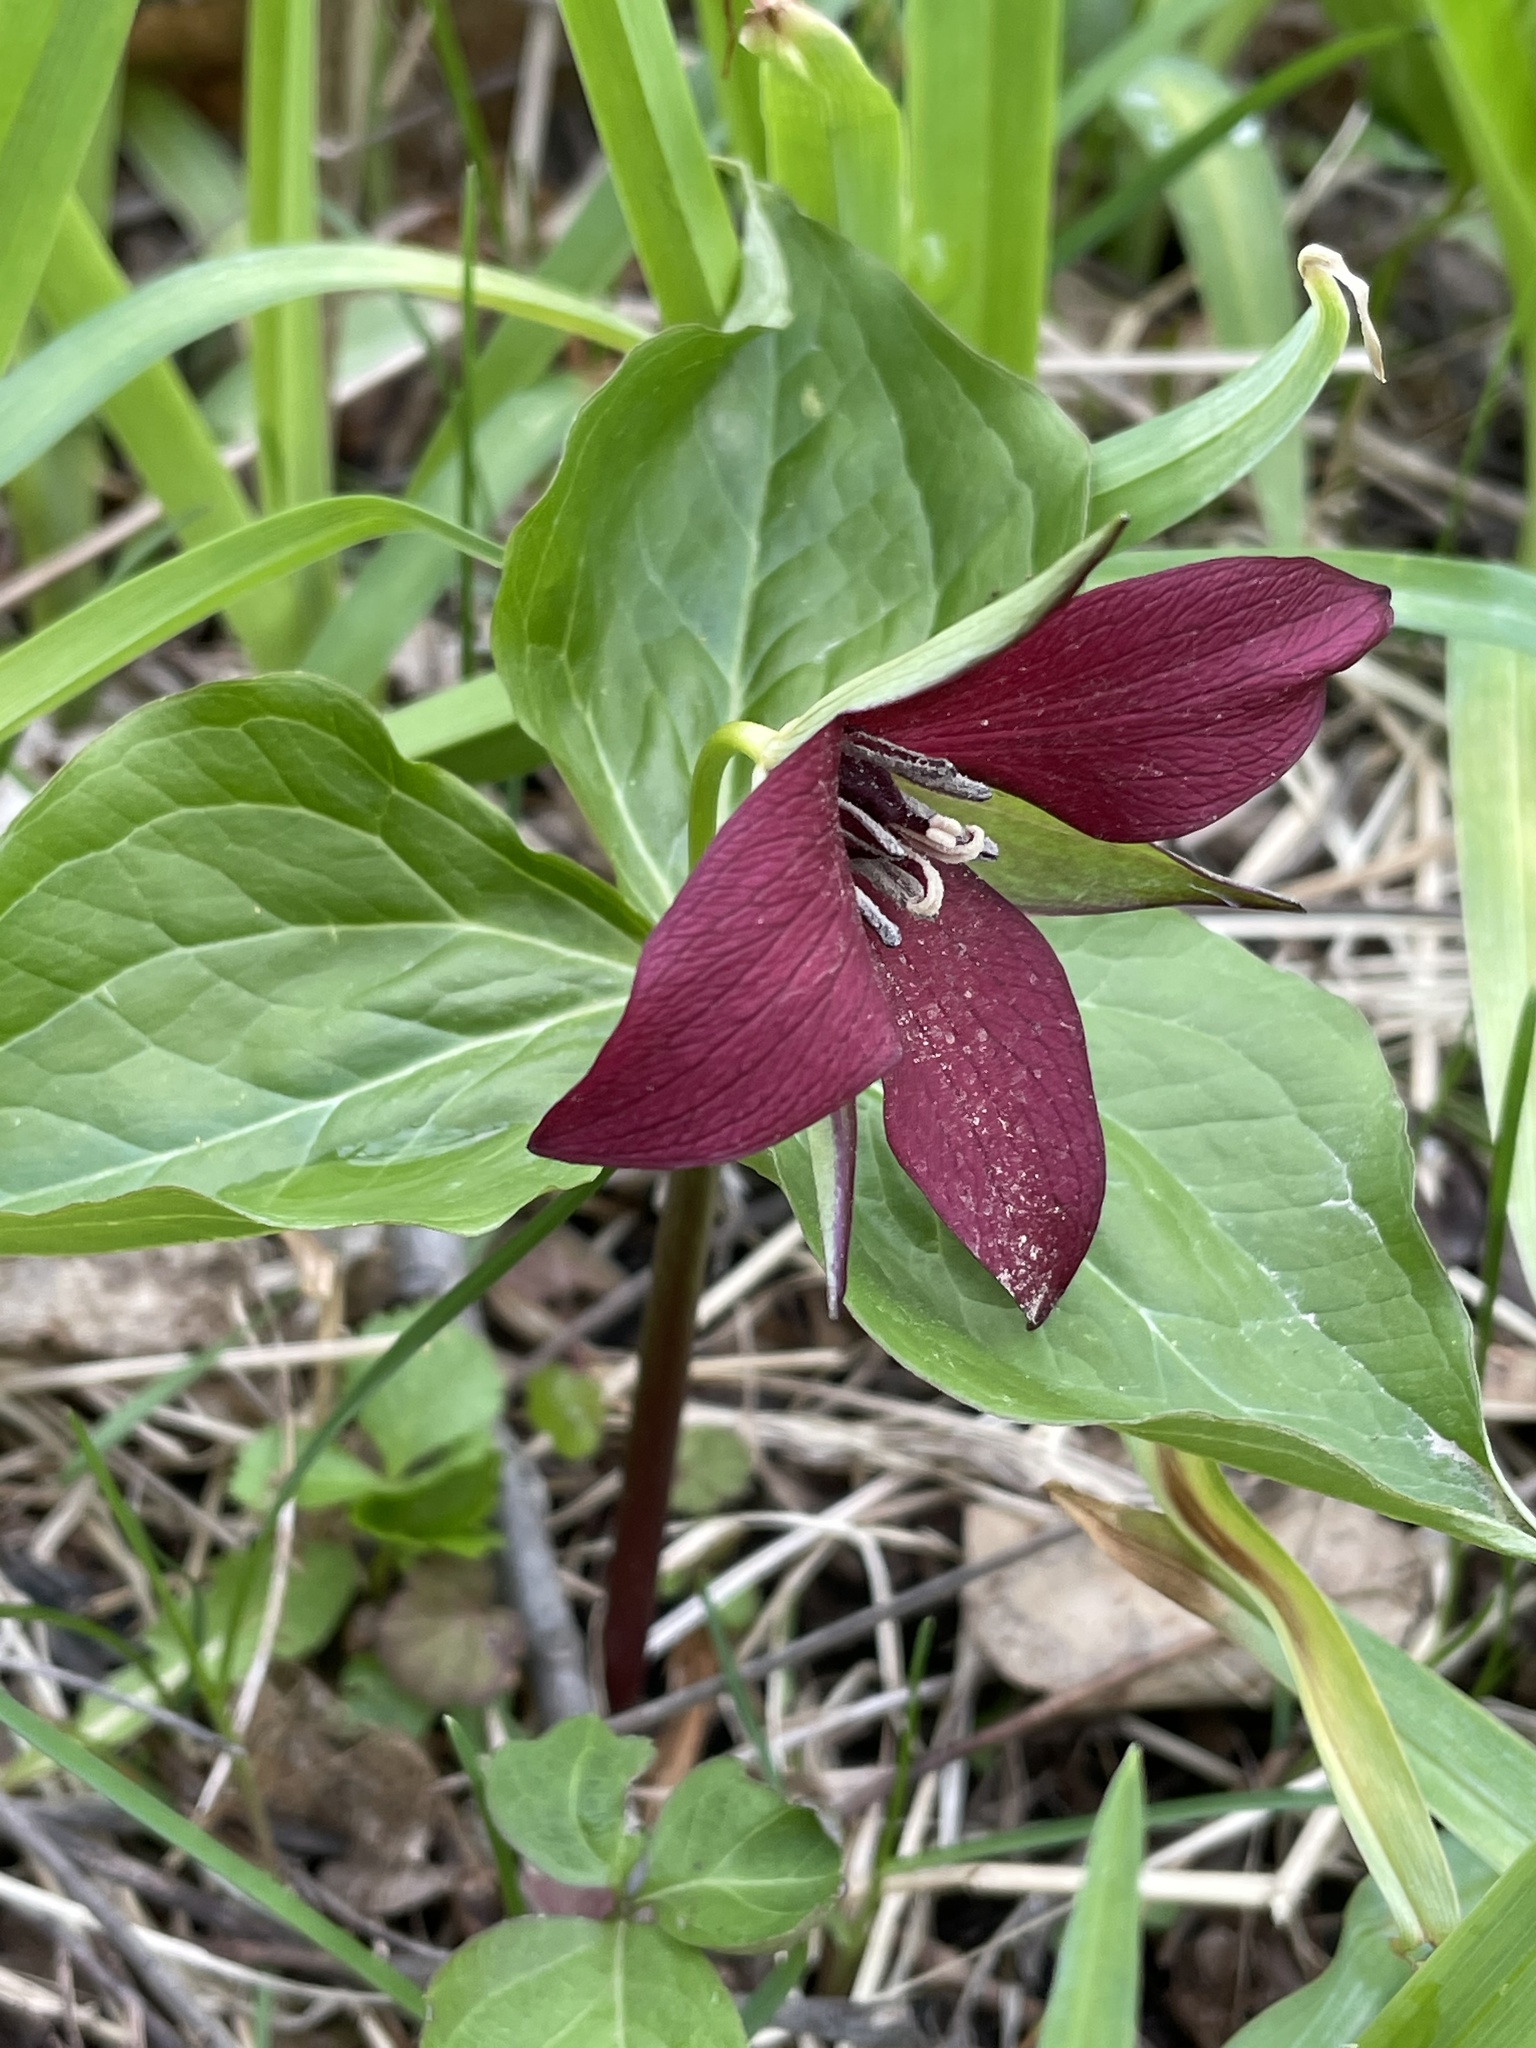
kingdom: Plantae
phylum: Tracheophyta
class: Liliopsida
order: Liliales
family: Melanthiaceae
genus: Trillium
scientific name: Trillium erectum
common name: Purple trillium
